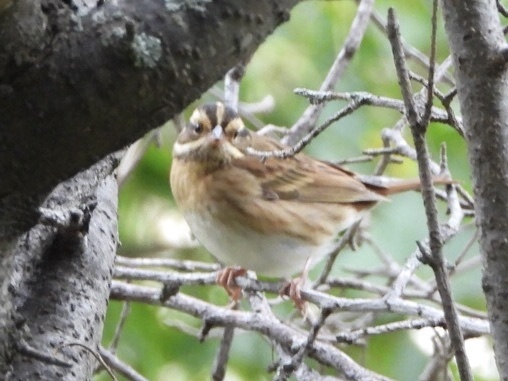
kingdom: Animalia
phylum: Chordata
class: Aves
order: Passeriformes
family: Emberizidae
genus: Emberiza
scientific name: Emberiza tristrami
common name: Tristram's bunting
